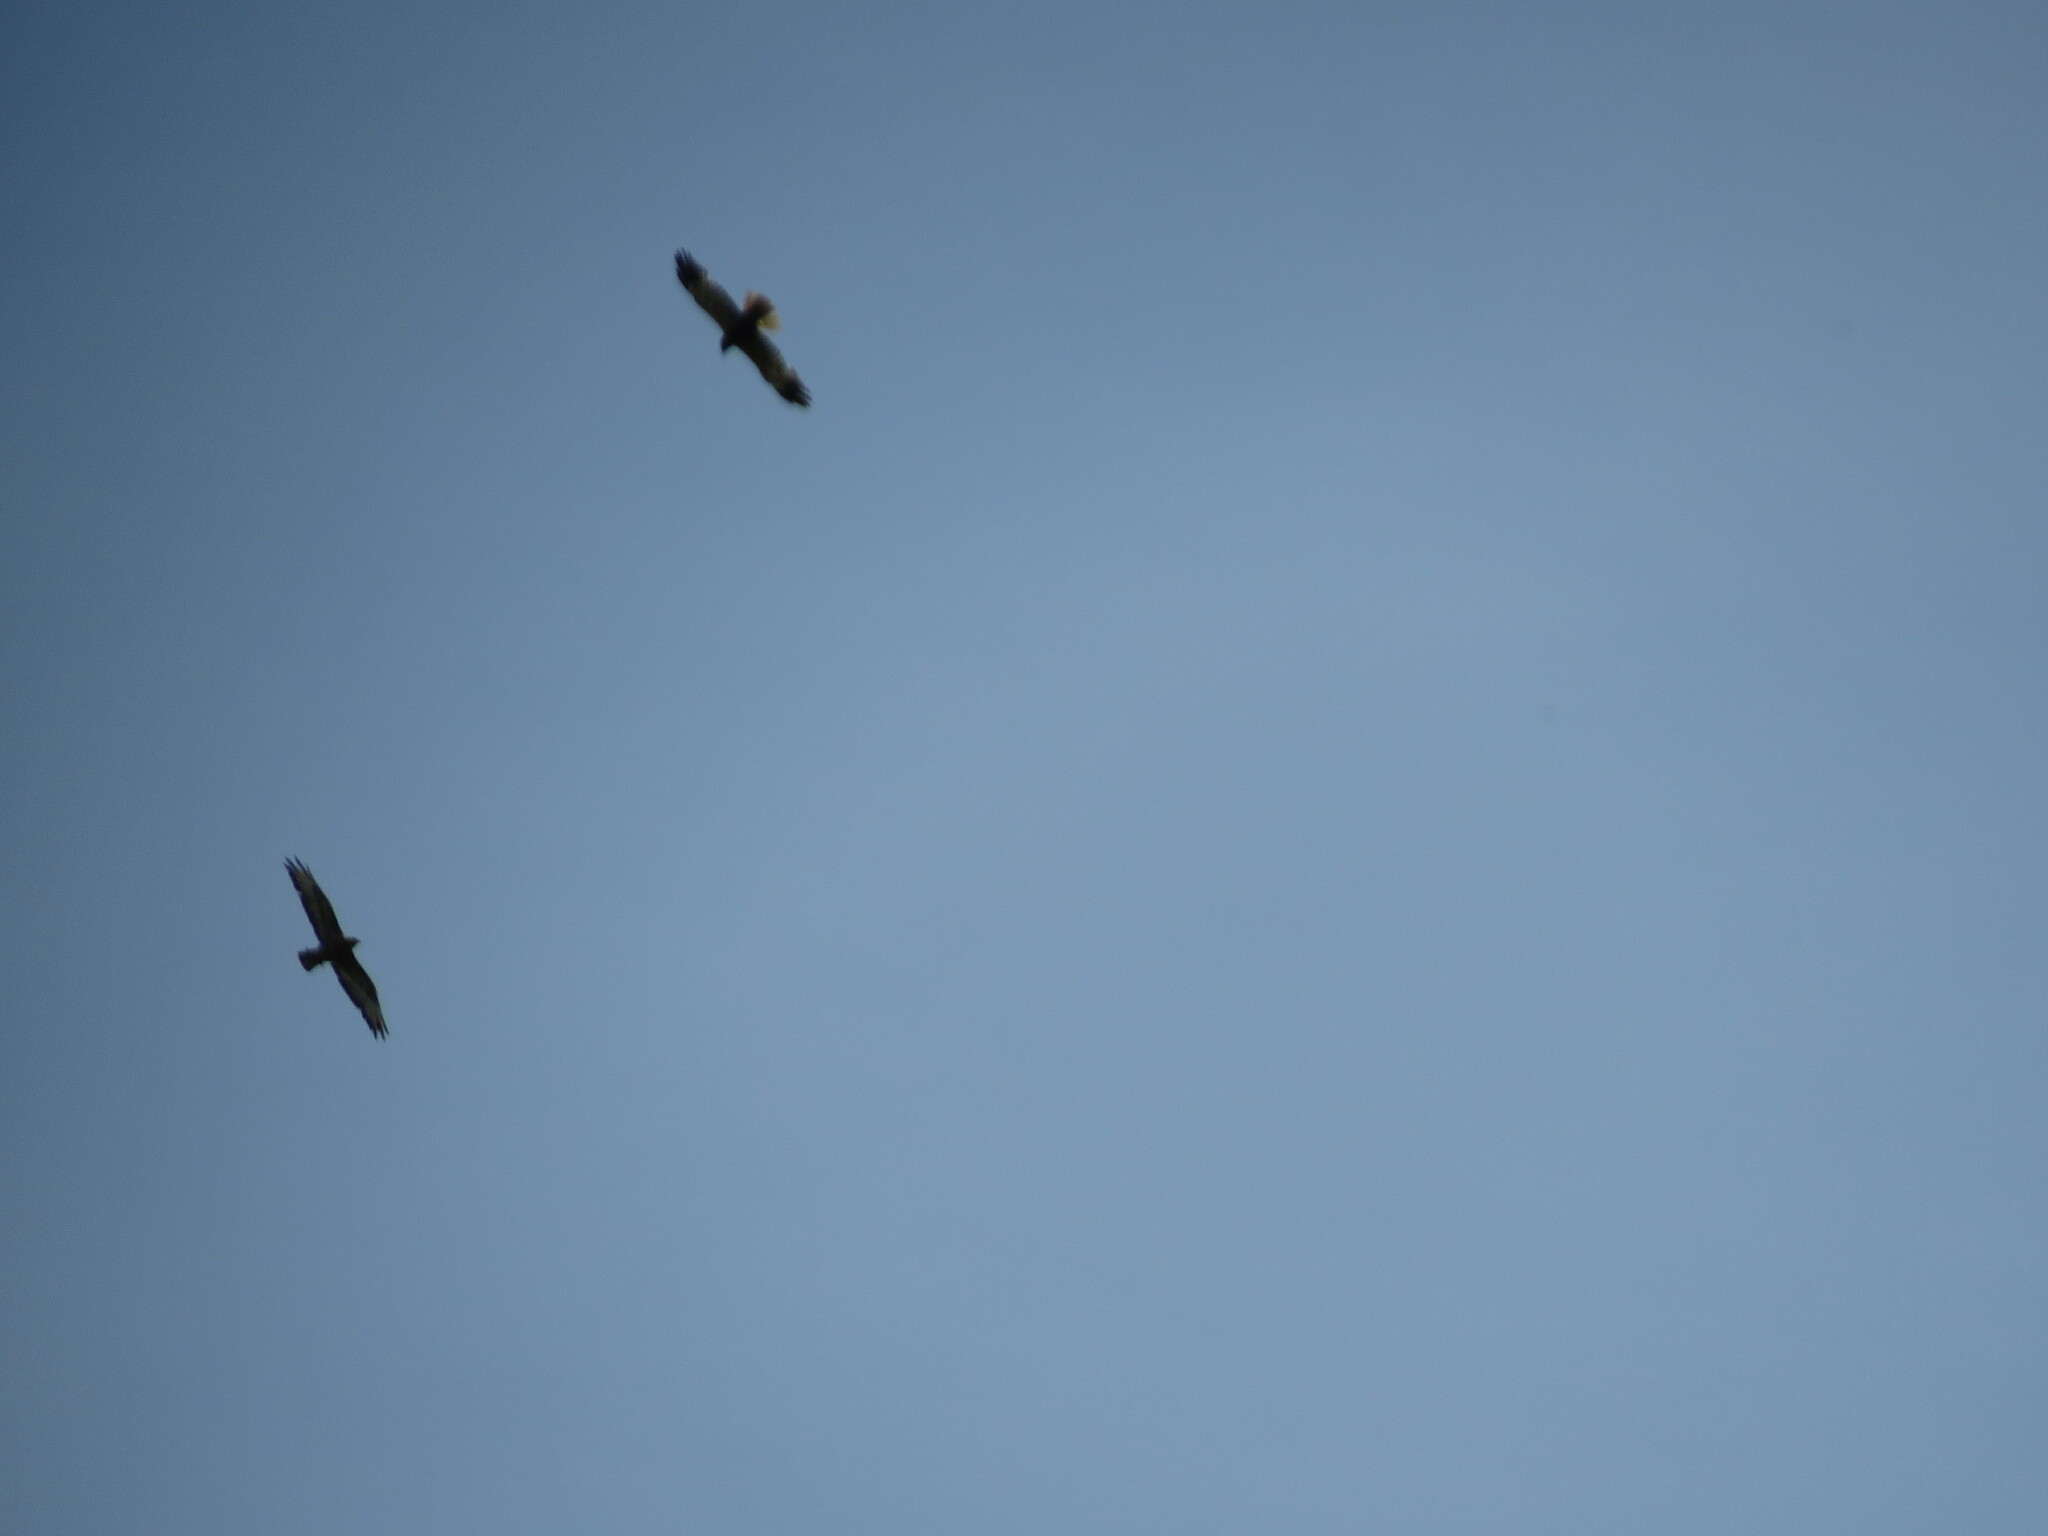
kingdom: Animalia
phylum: Chordata
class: Aves
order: Accipitriformes
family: Accipitridae
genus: Buteo
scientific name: Buteo buteo
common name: Common buzzard
